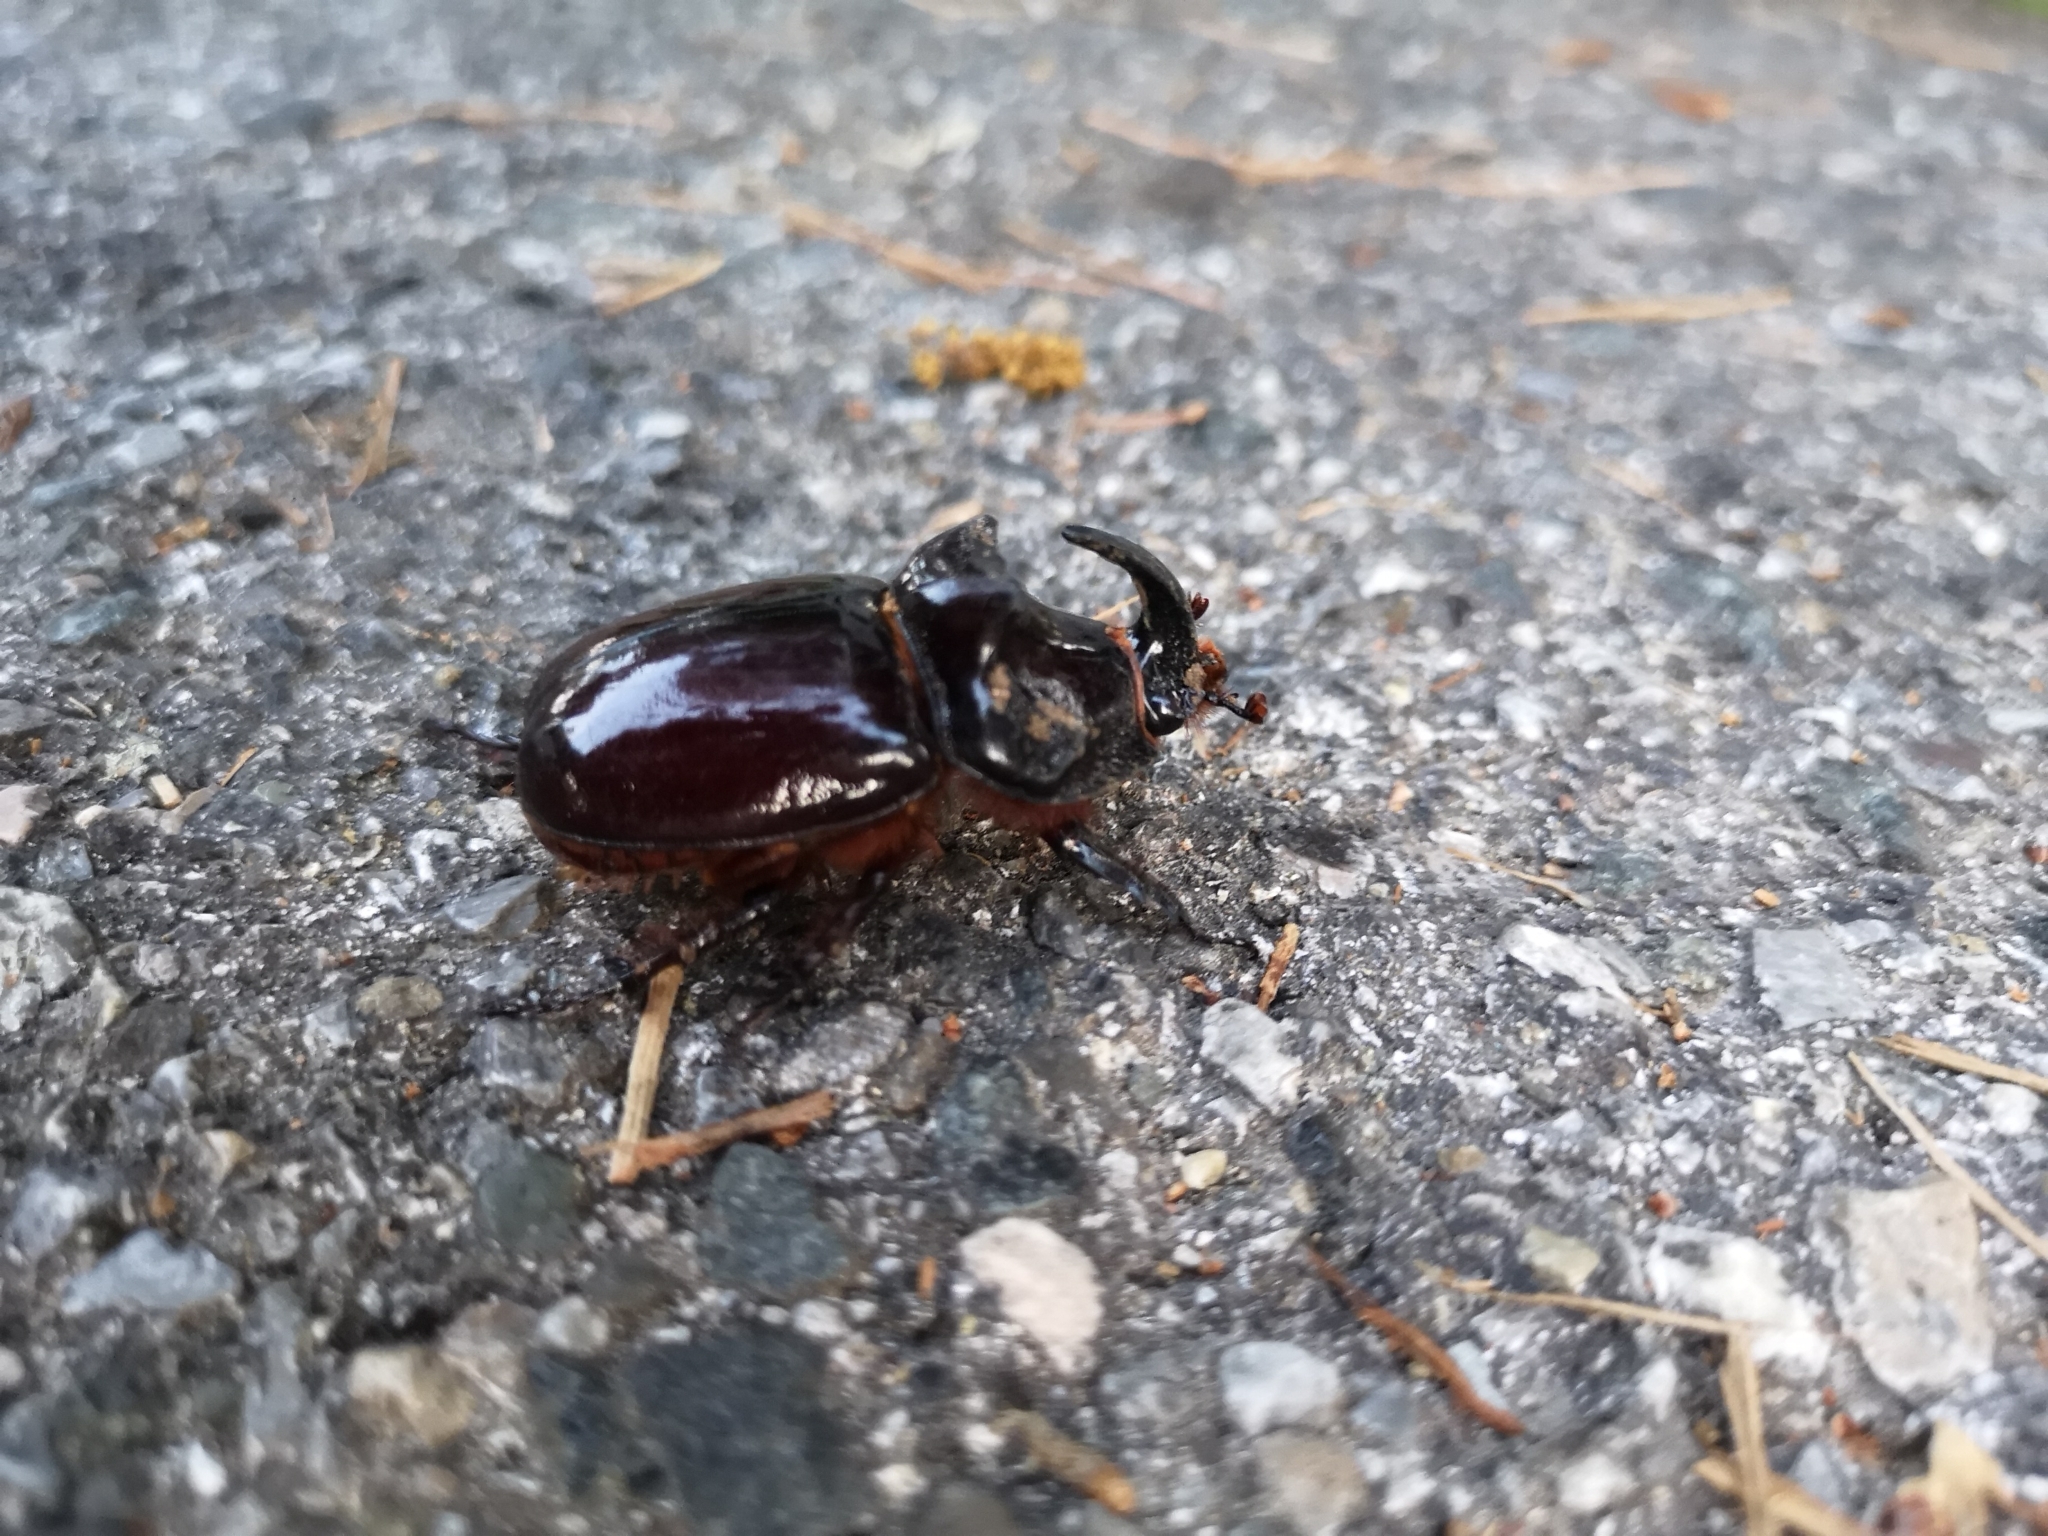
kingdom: Animalia
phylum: Arthropoda
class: Insecta
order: Coleoptera
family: Scarabaeidae
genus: Oryctes
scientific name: Oryctes nasicornis
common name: European rhinoceros beetle
